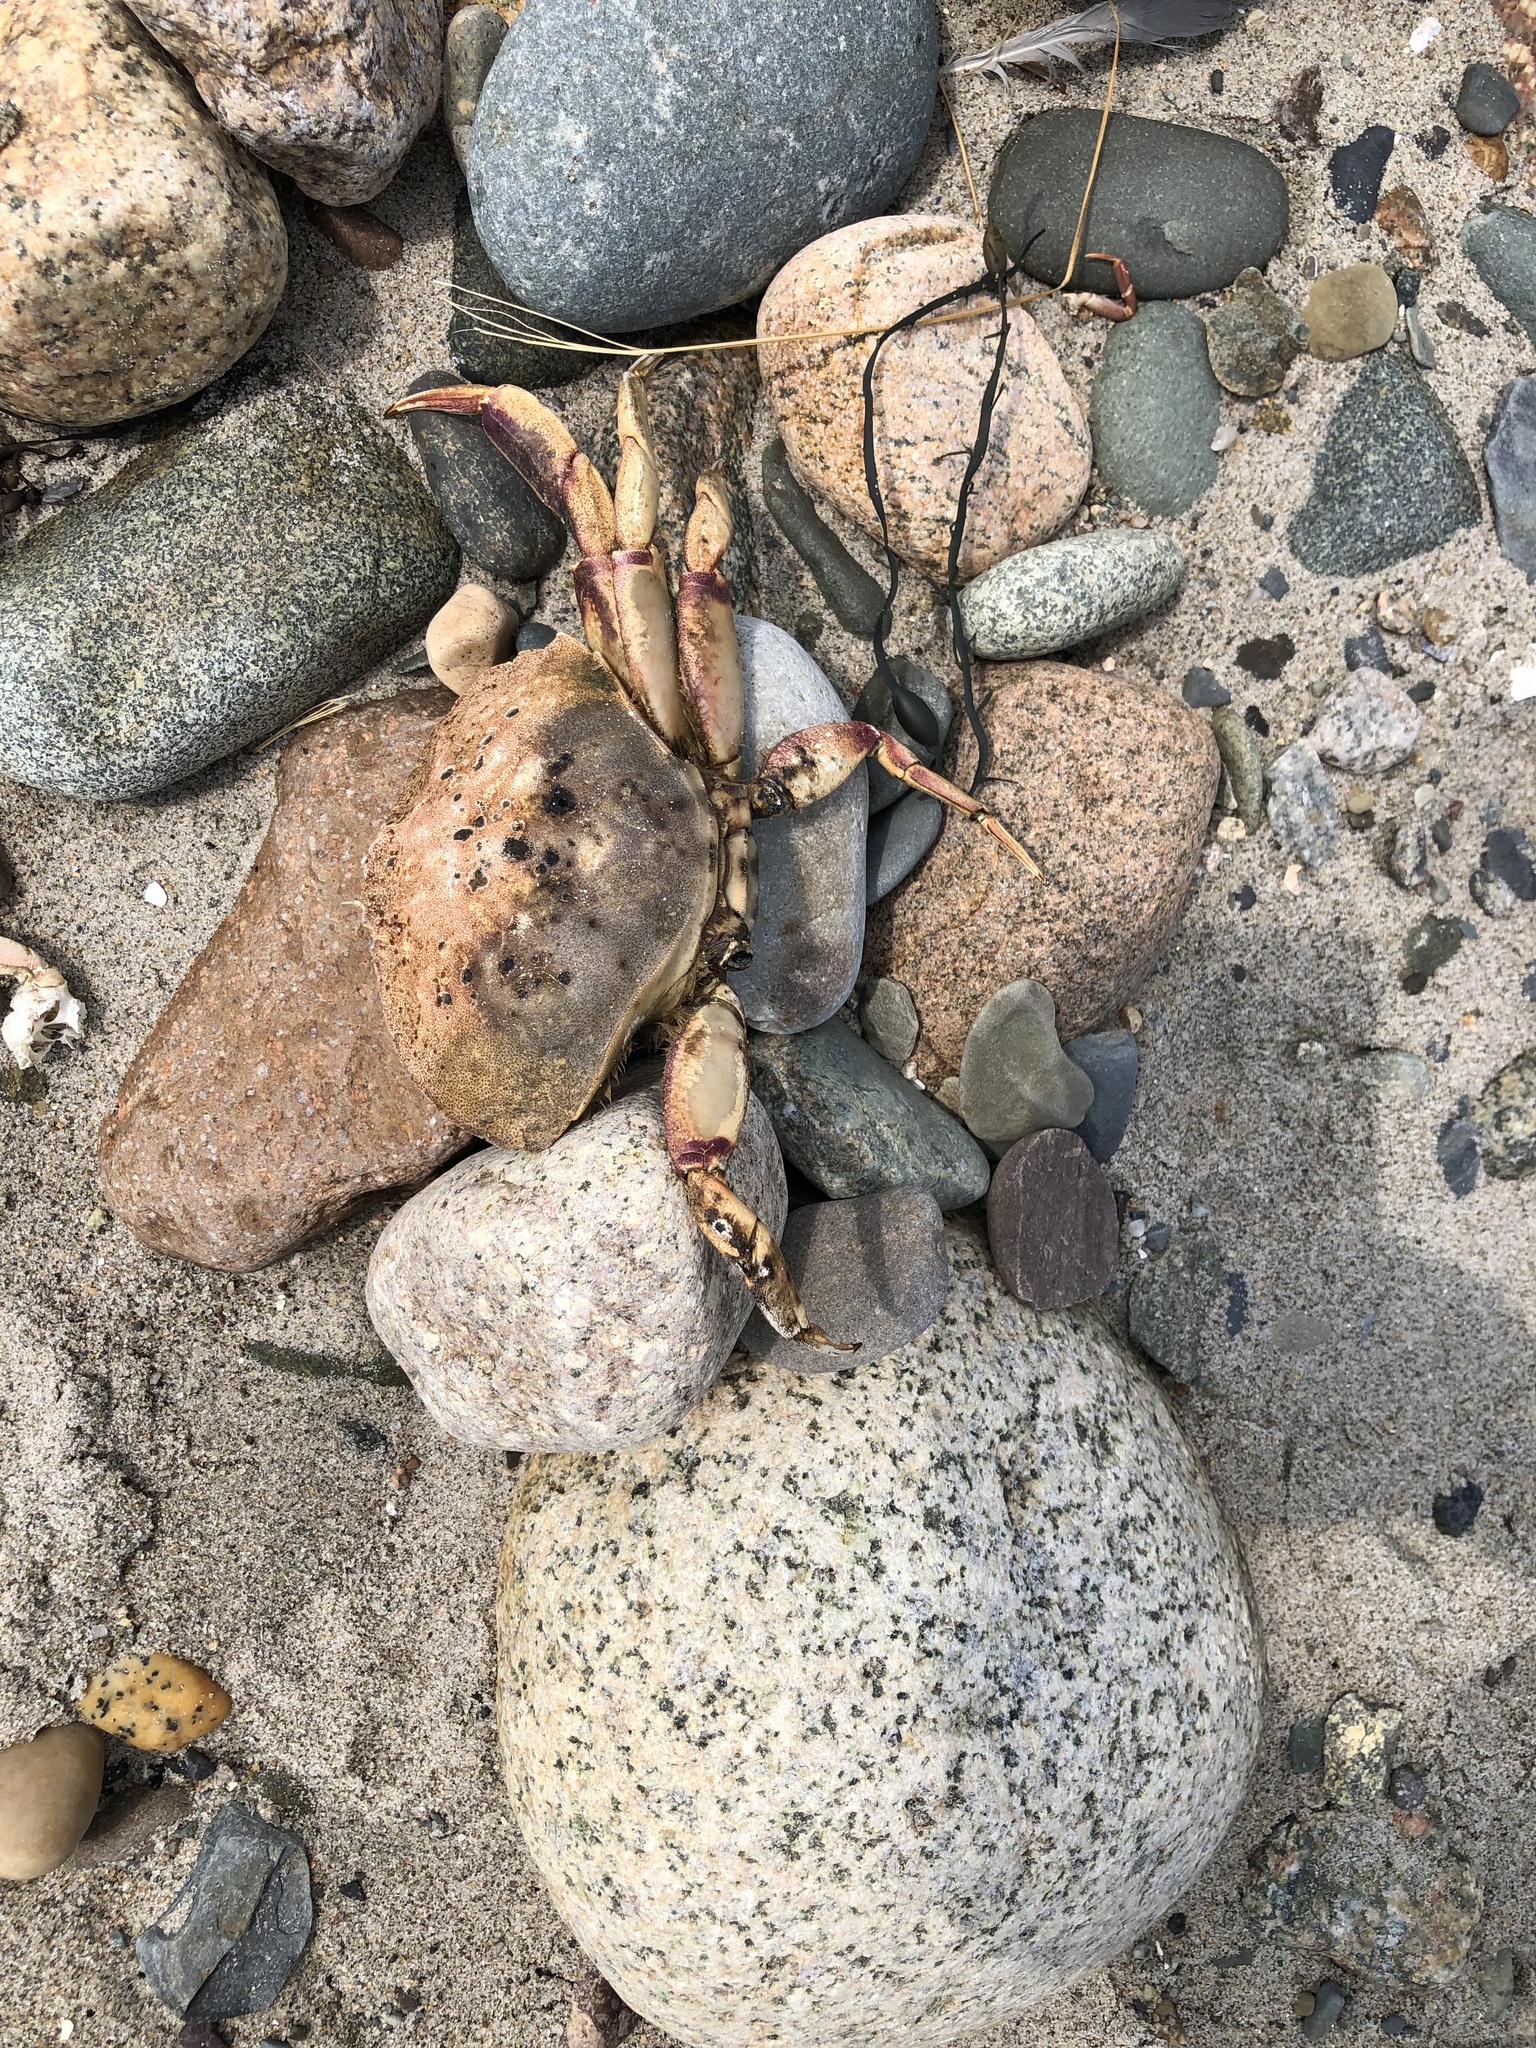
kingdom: Animalia
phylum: Arthropoda
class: Malacostraca
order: Decapoda
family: Cancridae
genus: Cancer
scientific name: Cancer irroratus
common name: Atlantic rock crab
